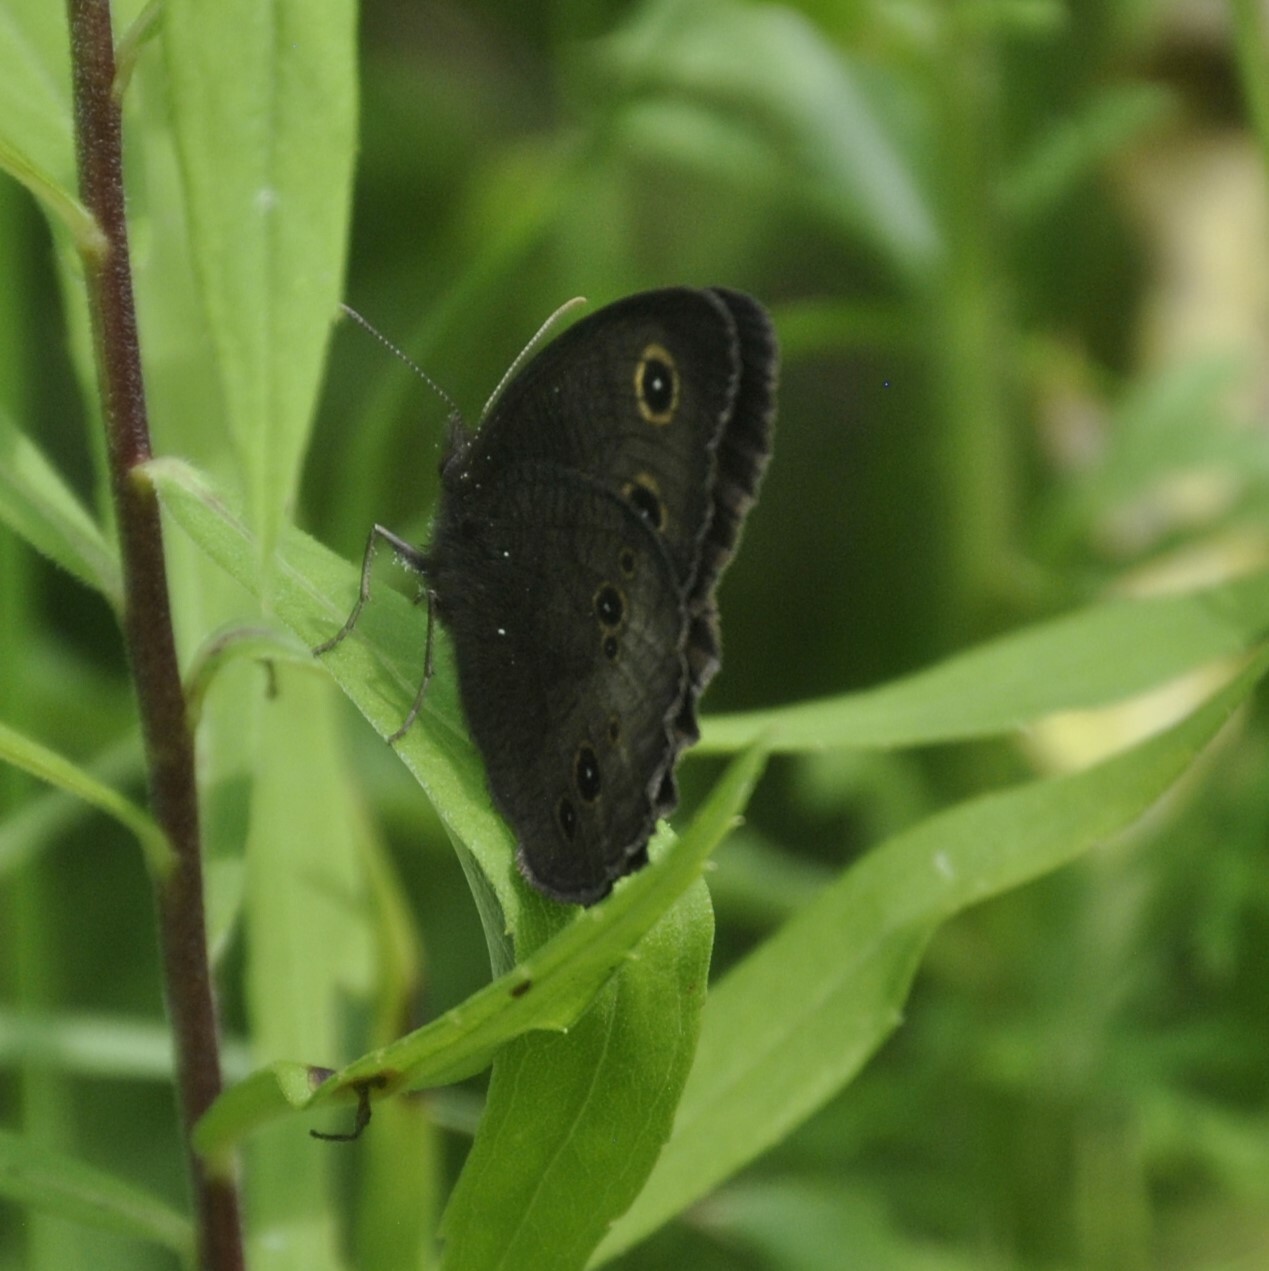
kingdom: Animalia
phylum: Arthropoda
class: Insecta
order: Lepidoptera
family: Nymphalidae
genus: Cercyonis
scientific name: Cercyonis pegala
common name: Common wood-nymph
